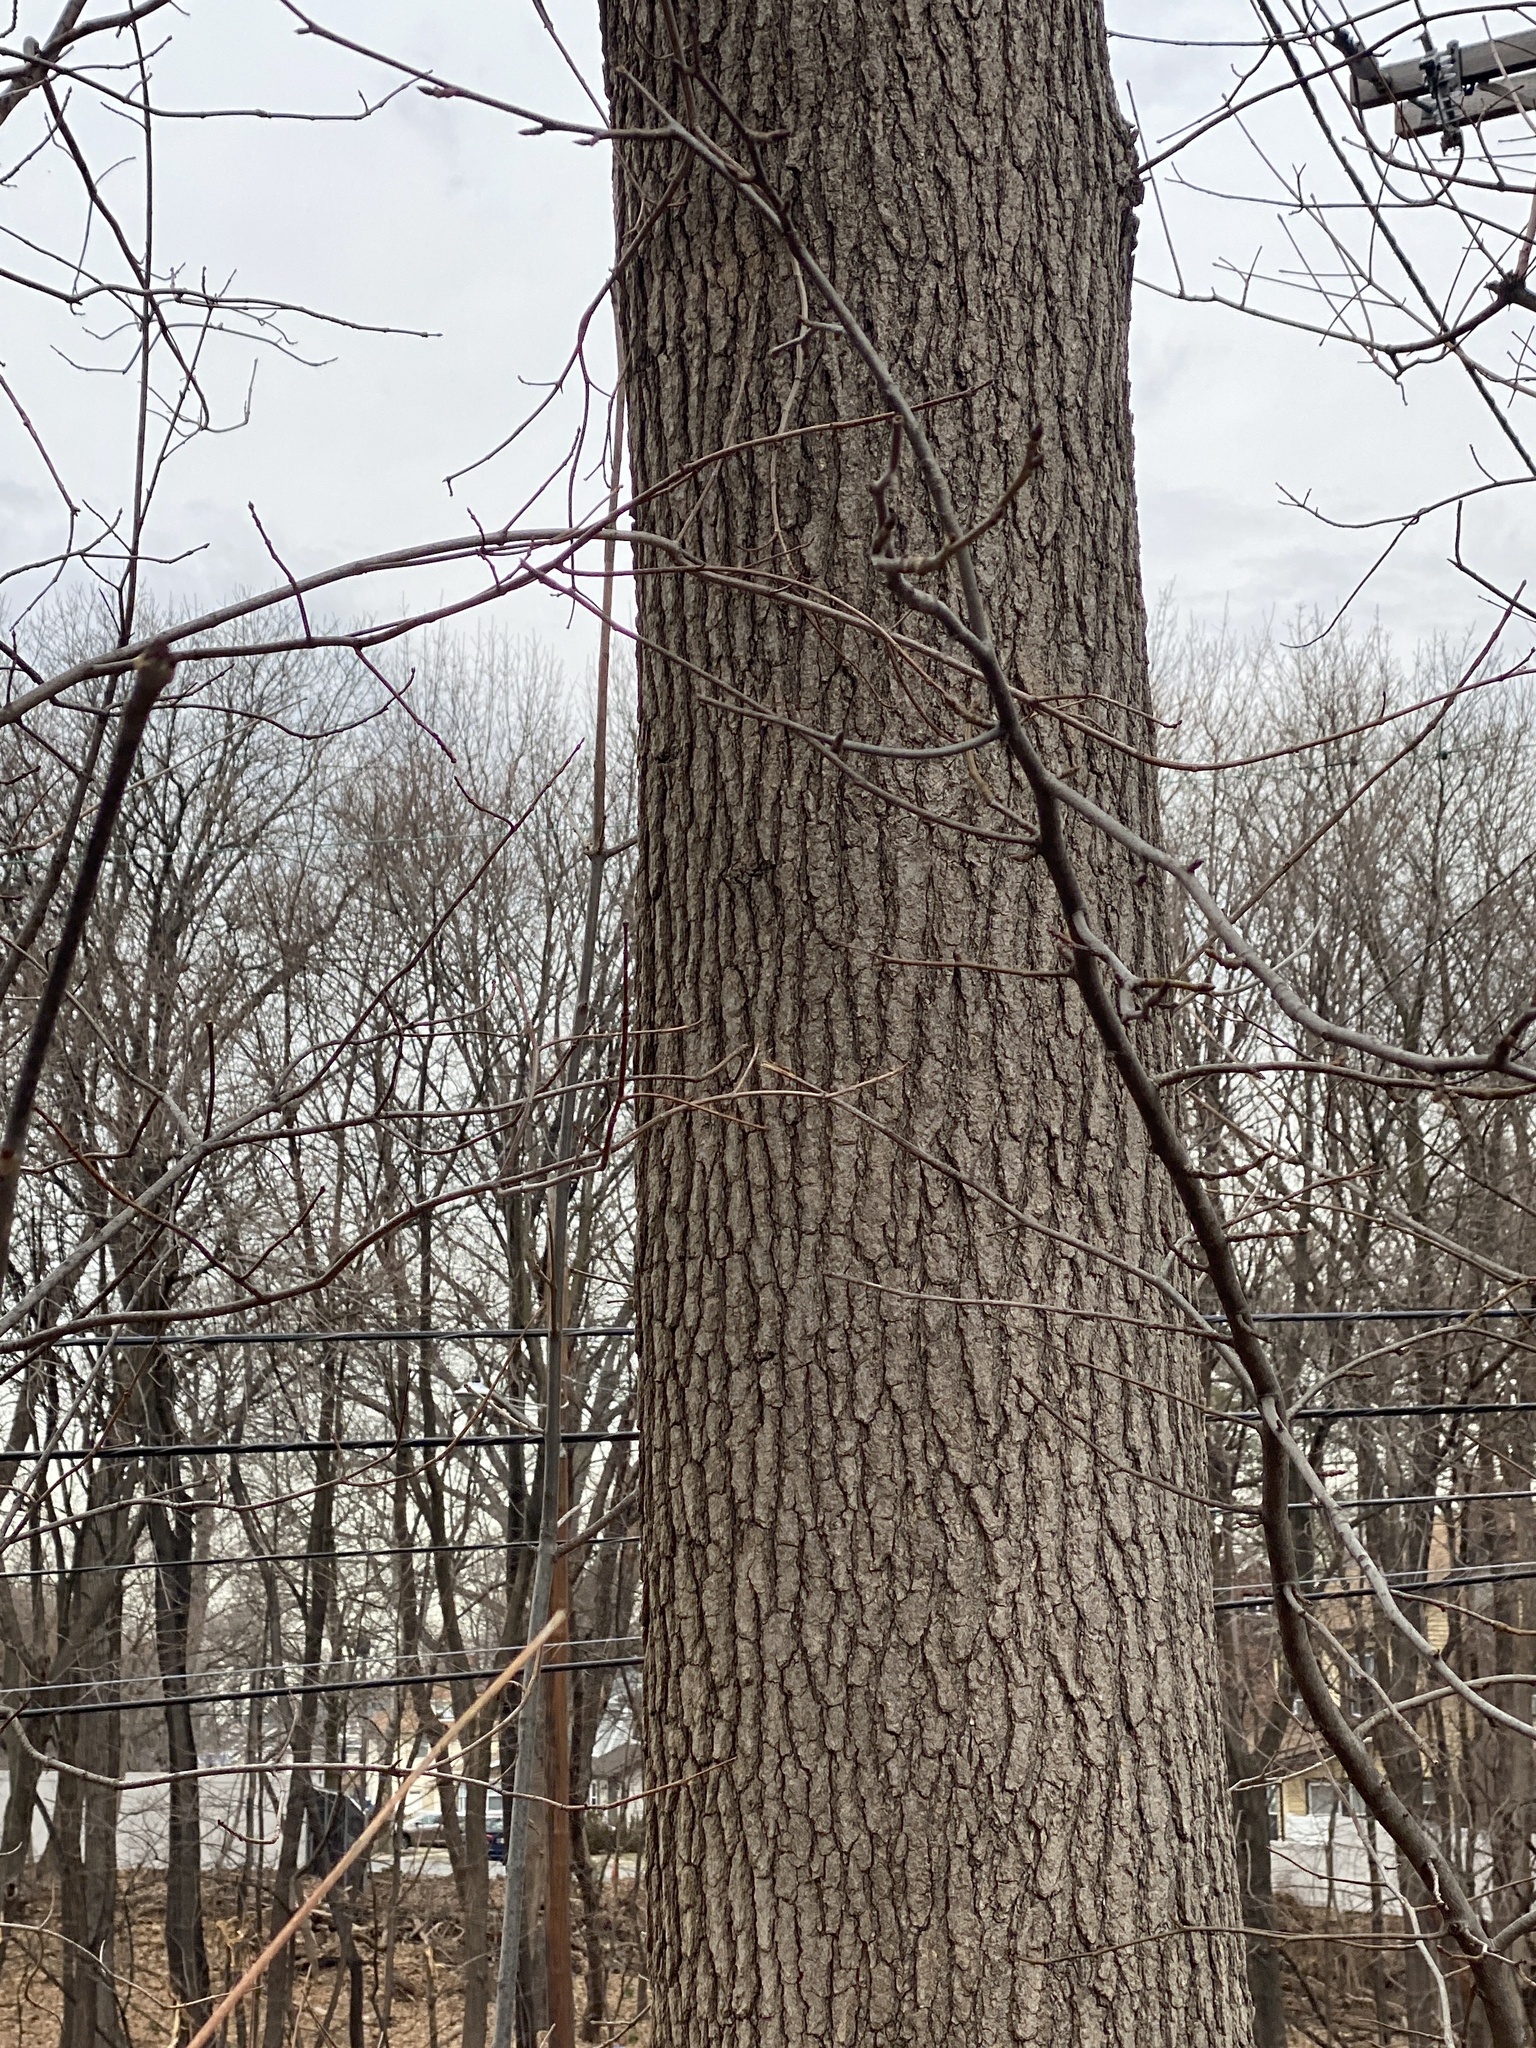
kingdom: Plantae
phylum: Tracheophyta
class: Magnoliopsida
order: Saxifragales
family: Altingiaceae
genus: Liquidambar
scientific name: Liquidambar styraciflua
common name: Sweet gum
